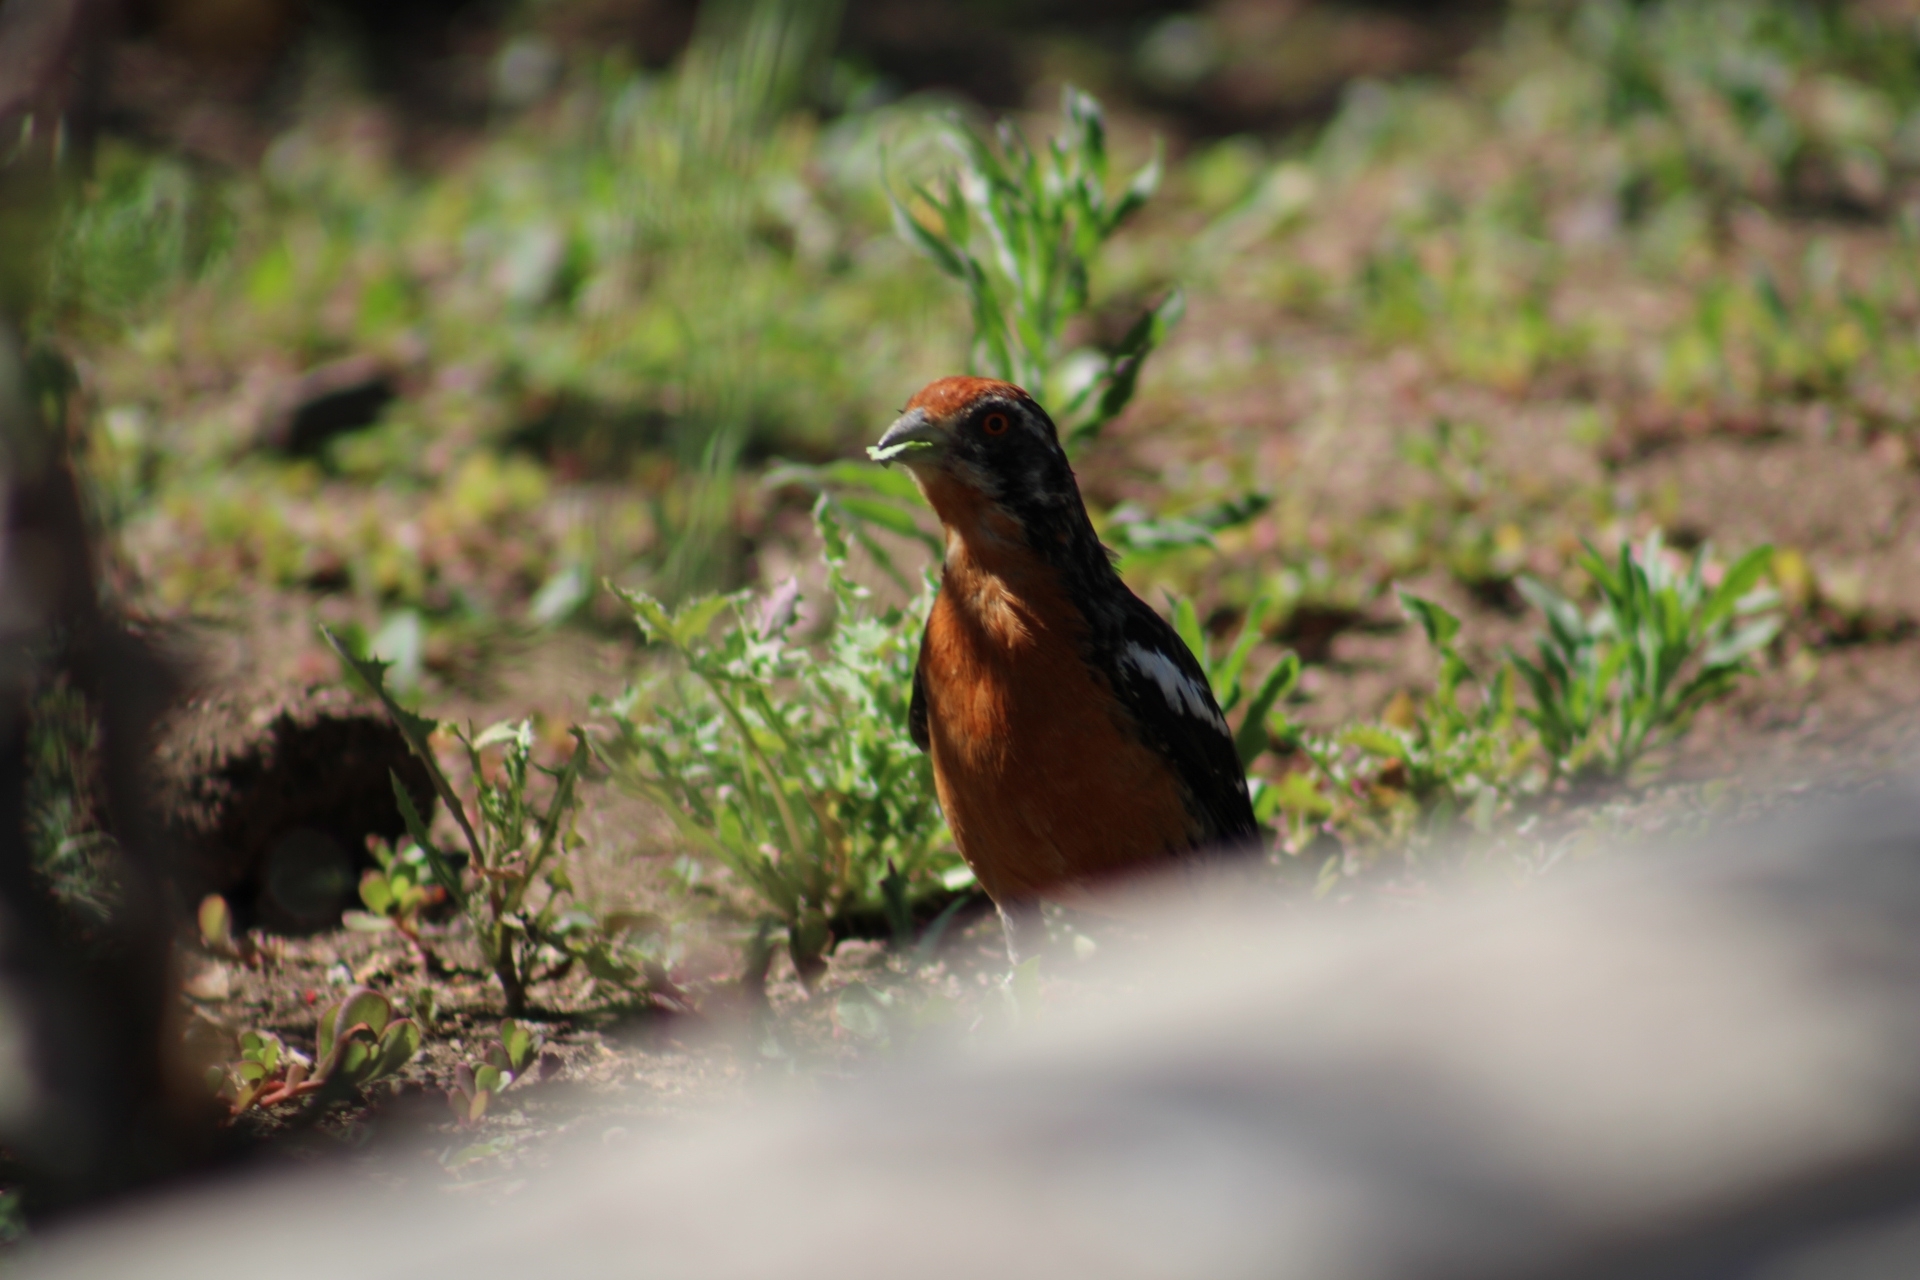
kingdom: Animalia
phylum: Chordata
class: Aves
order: Passeriformes
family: Cotingidae
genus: Phytotoma
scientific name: Phytotoma rara
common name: Rufous-tailed plantcutter
